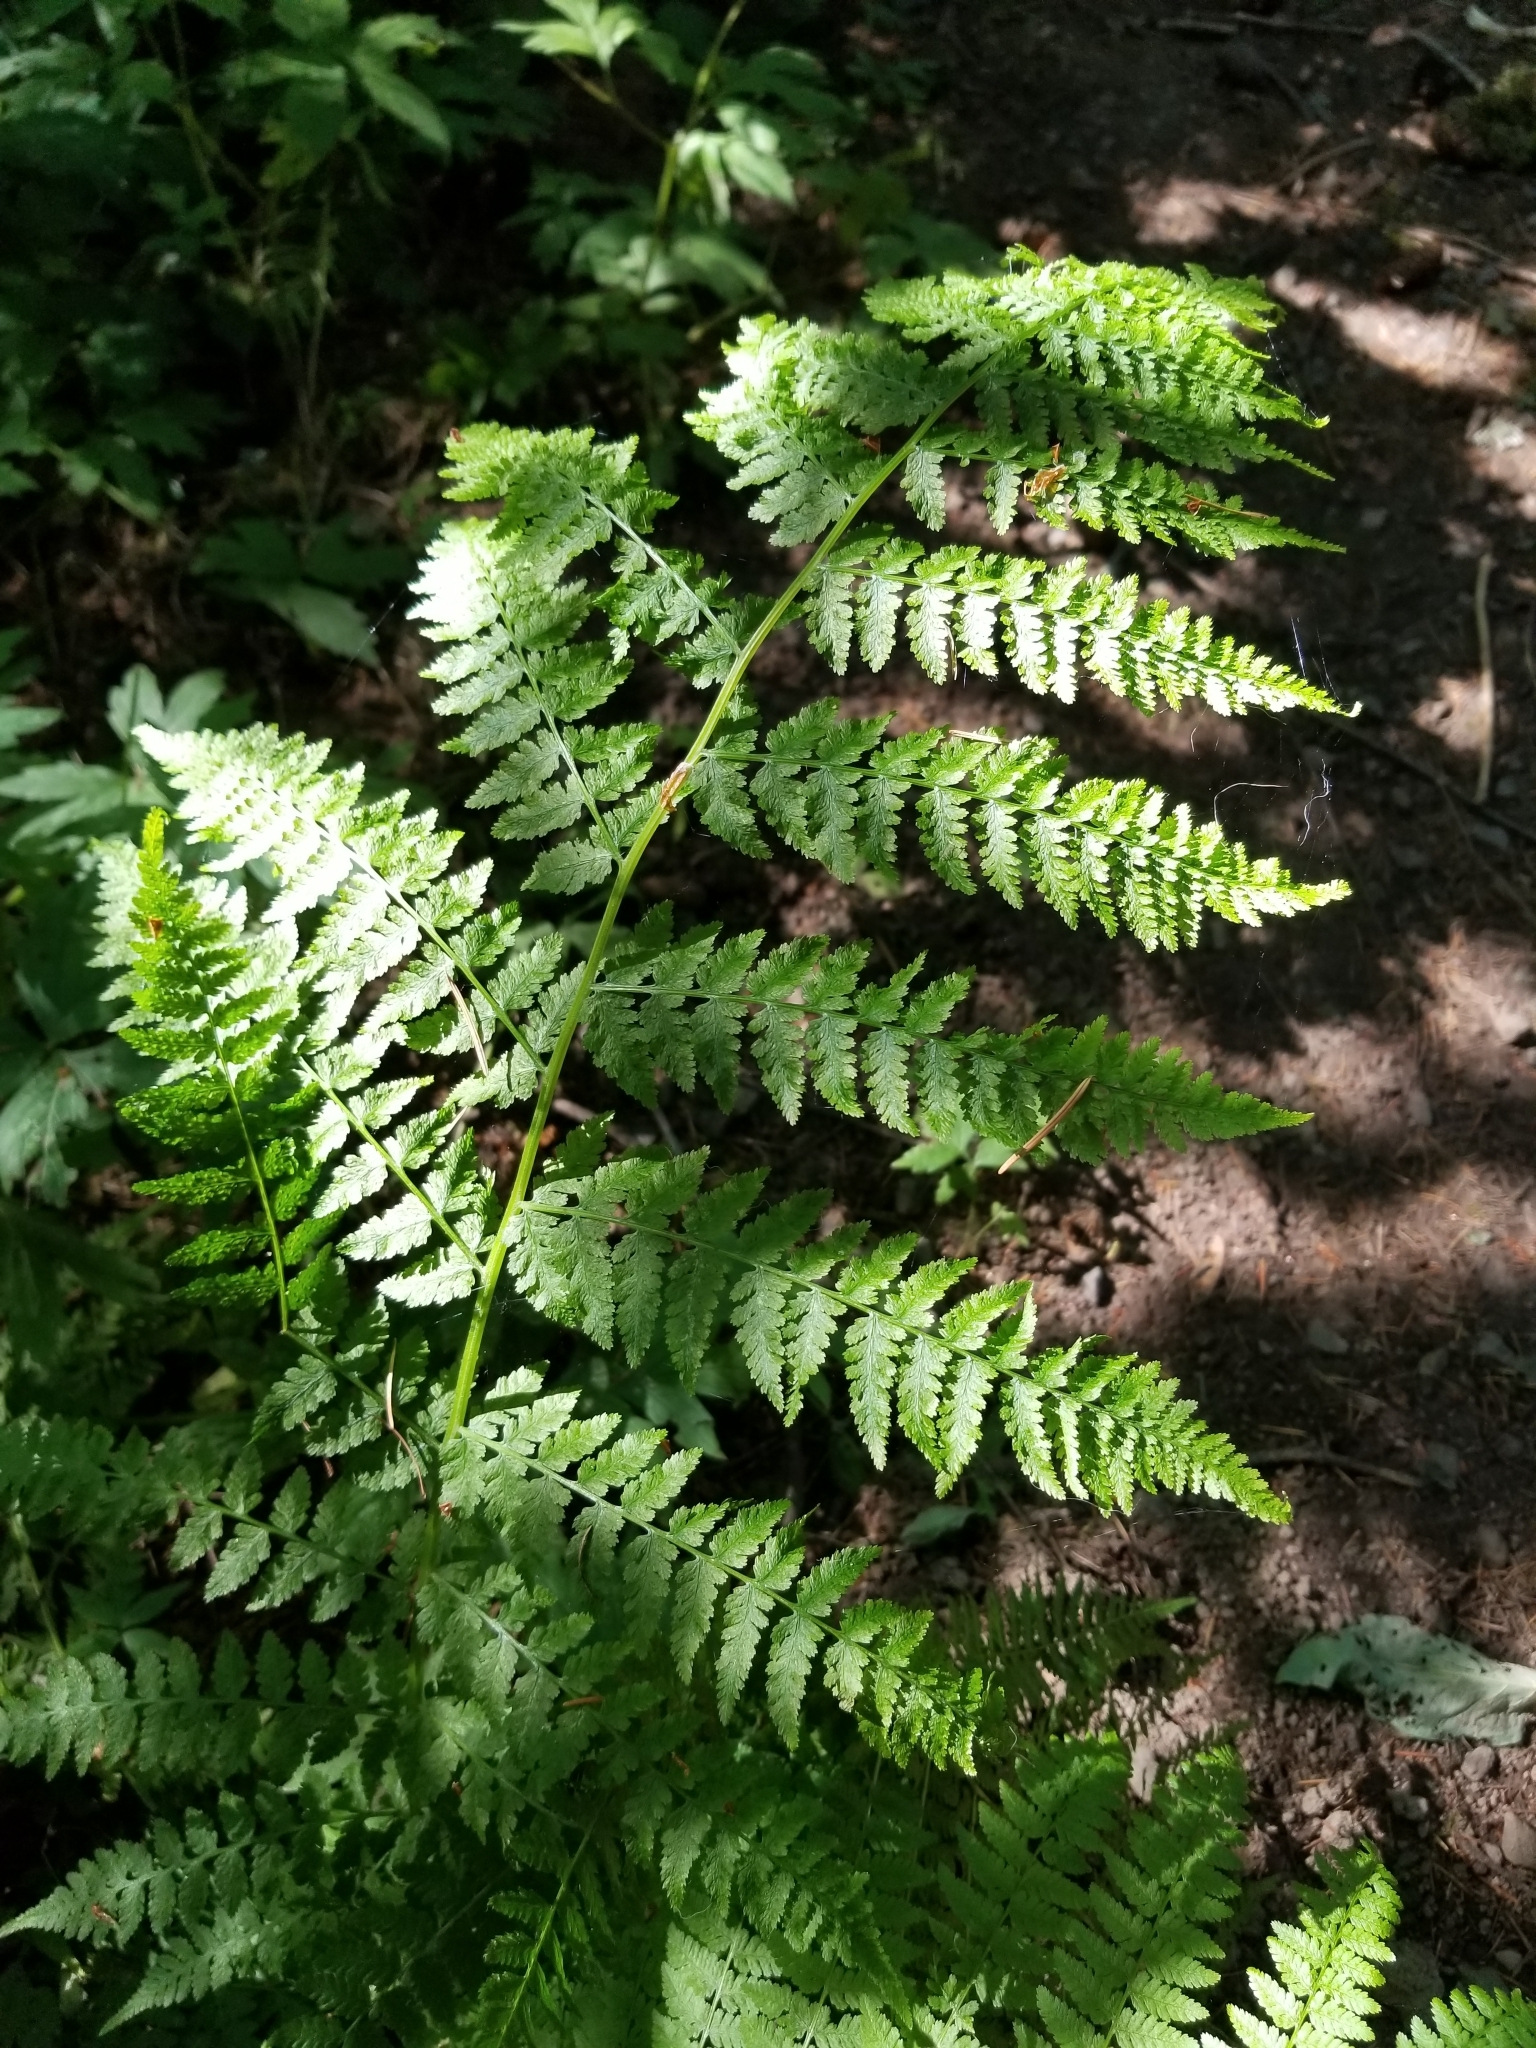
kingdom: Plantae
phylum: Tracheophyta
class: Polypodiopsida
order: Polypodiales
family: Dennstaedtiaceae
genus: Pteridium
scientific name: Pteridium aquilinum
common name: Bracken
